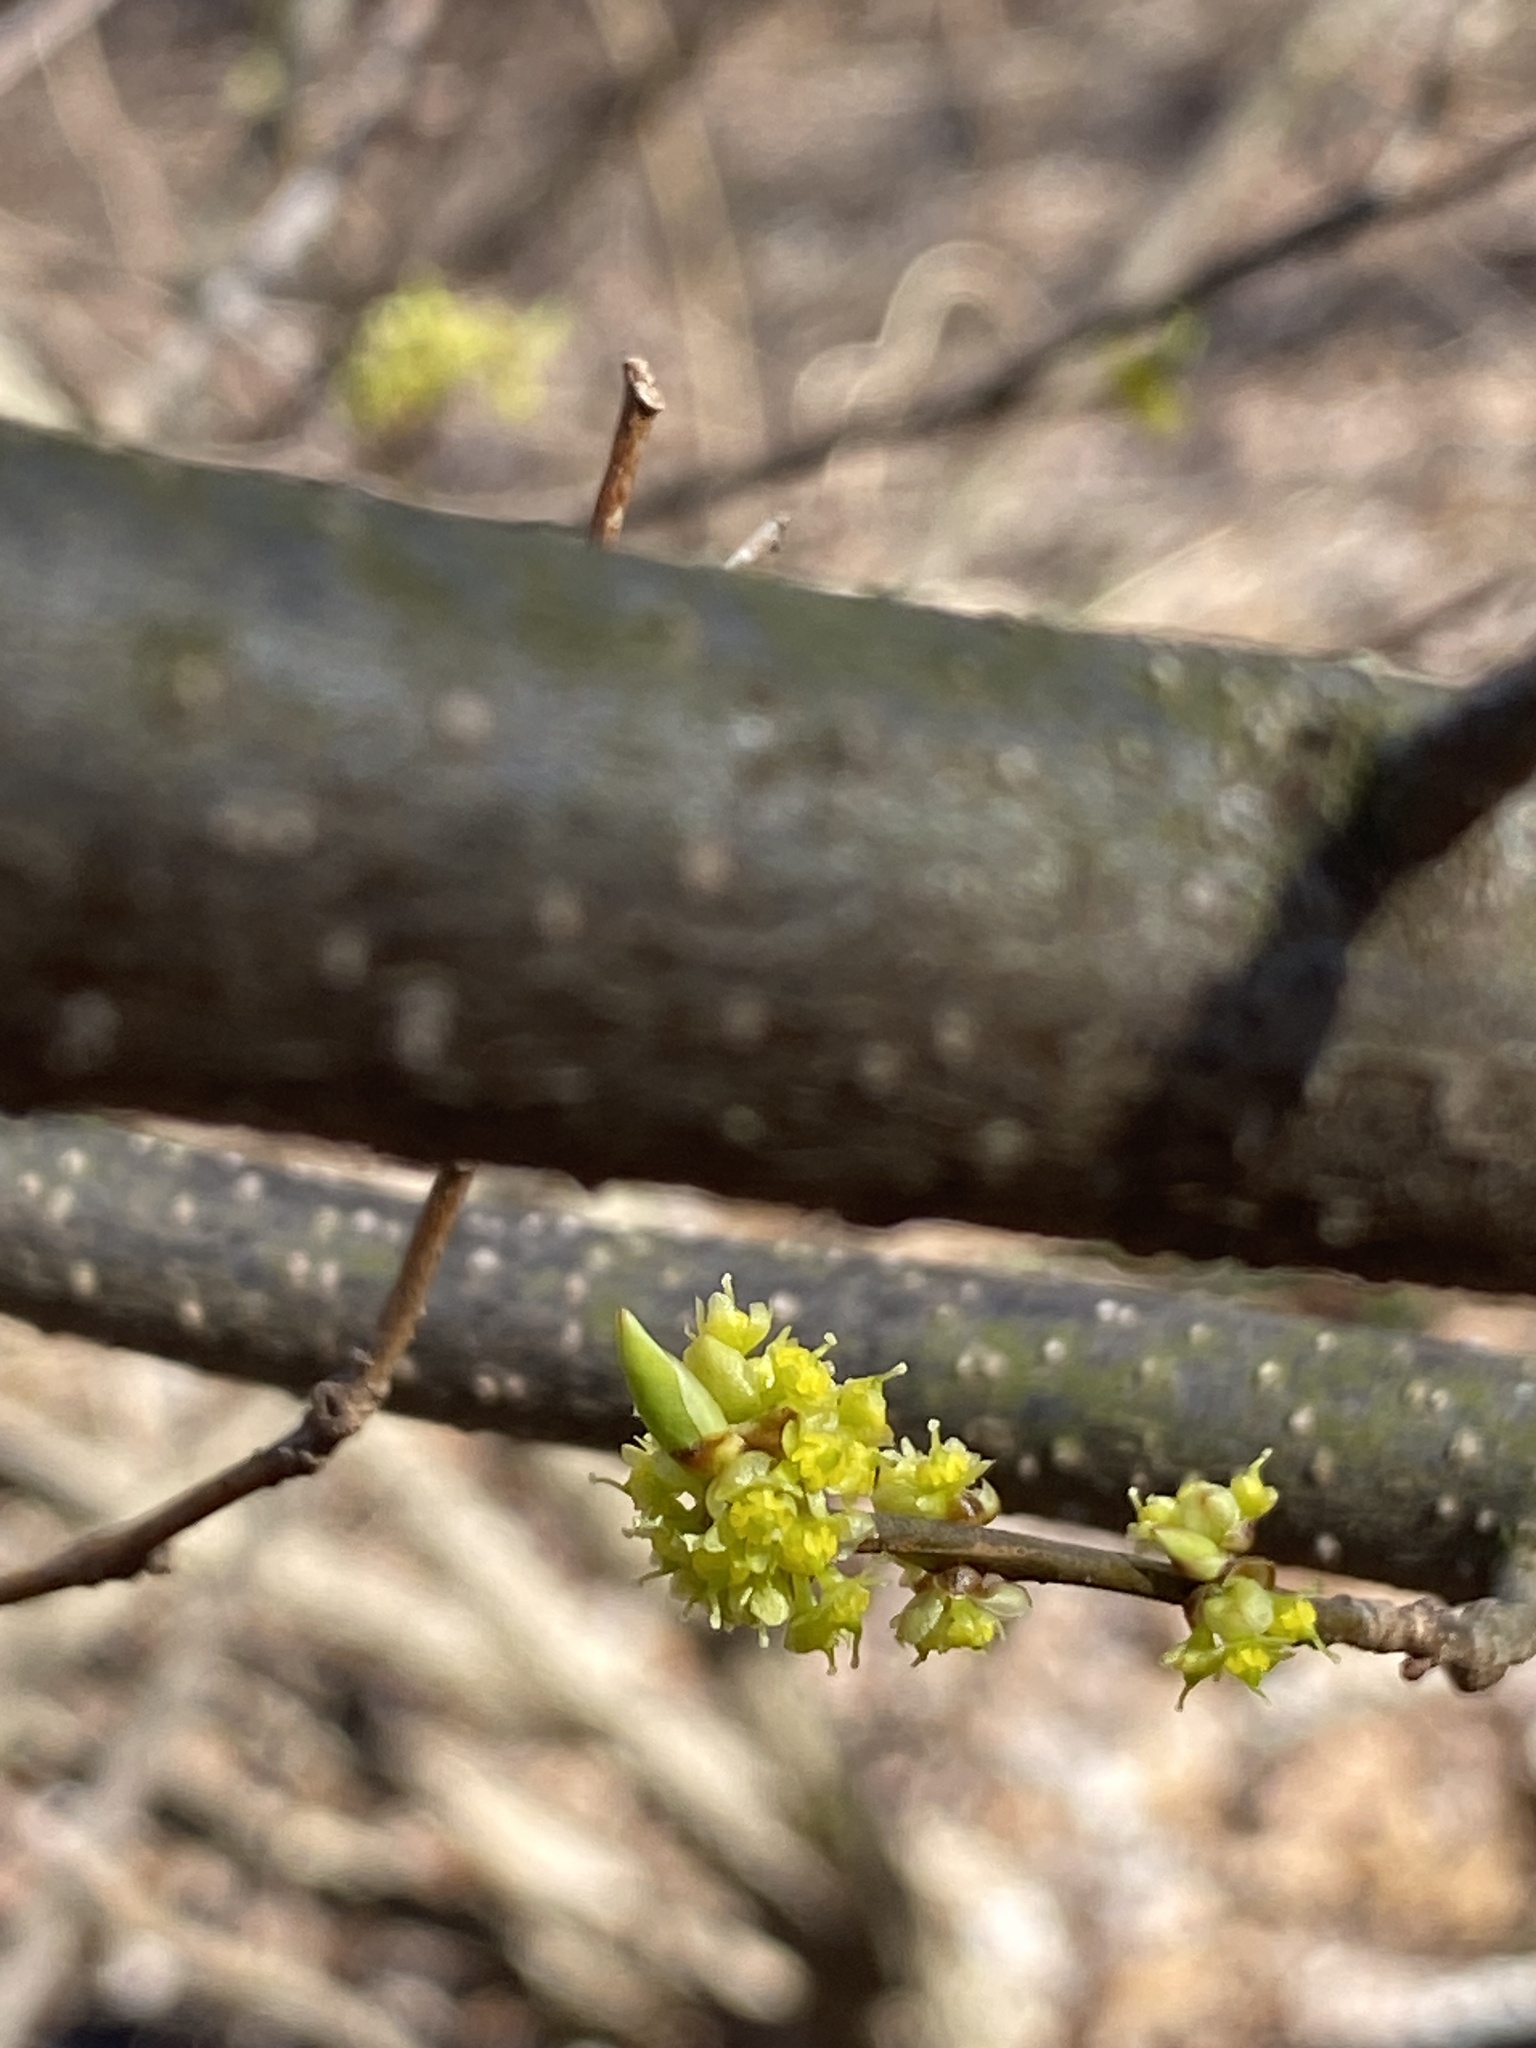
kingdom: Plantae
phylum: Tracheophyta
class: Magnoliopsida
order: Laurales
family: Lauraceae
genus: Lindera
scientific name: Lindera benzoin
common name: Spicebush
